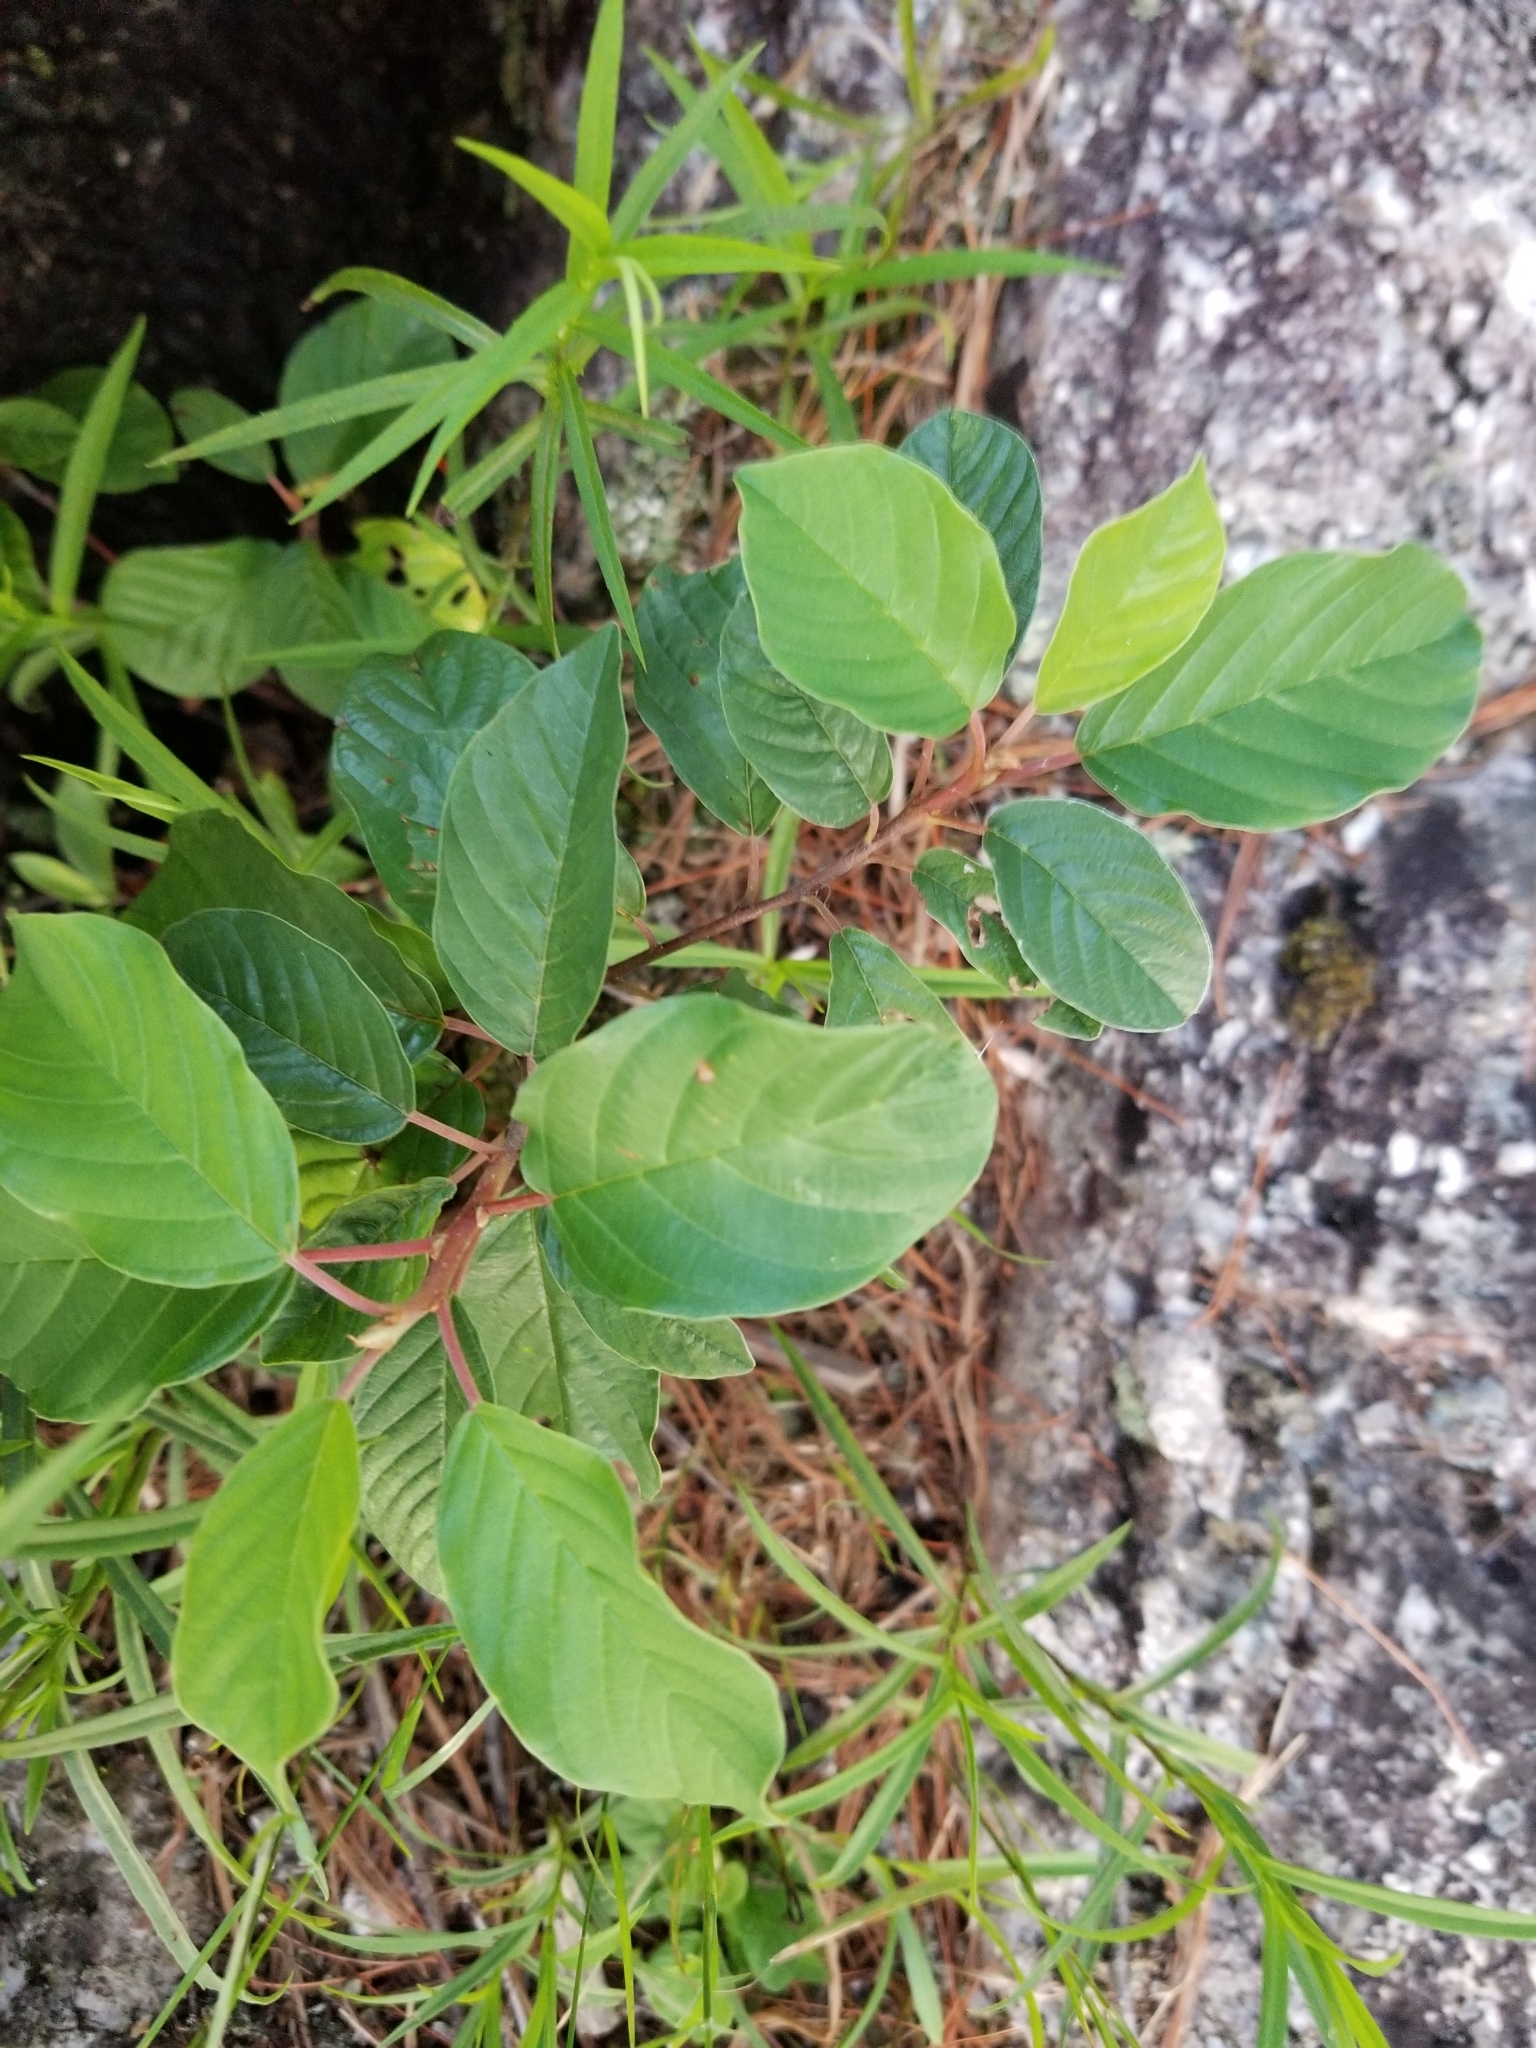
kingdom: Plantae
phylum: Tracheophyta
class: Magnoliopsida
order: Rosales
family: Rhamnaceae
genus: Frangula
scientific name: Frangula alnus
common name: Alder buckthorn
